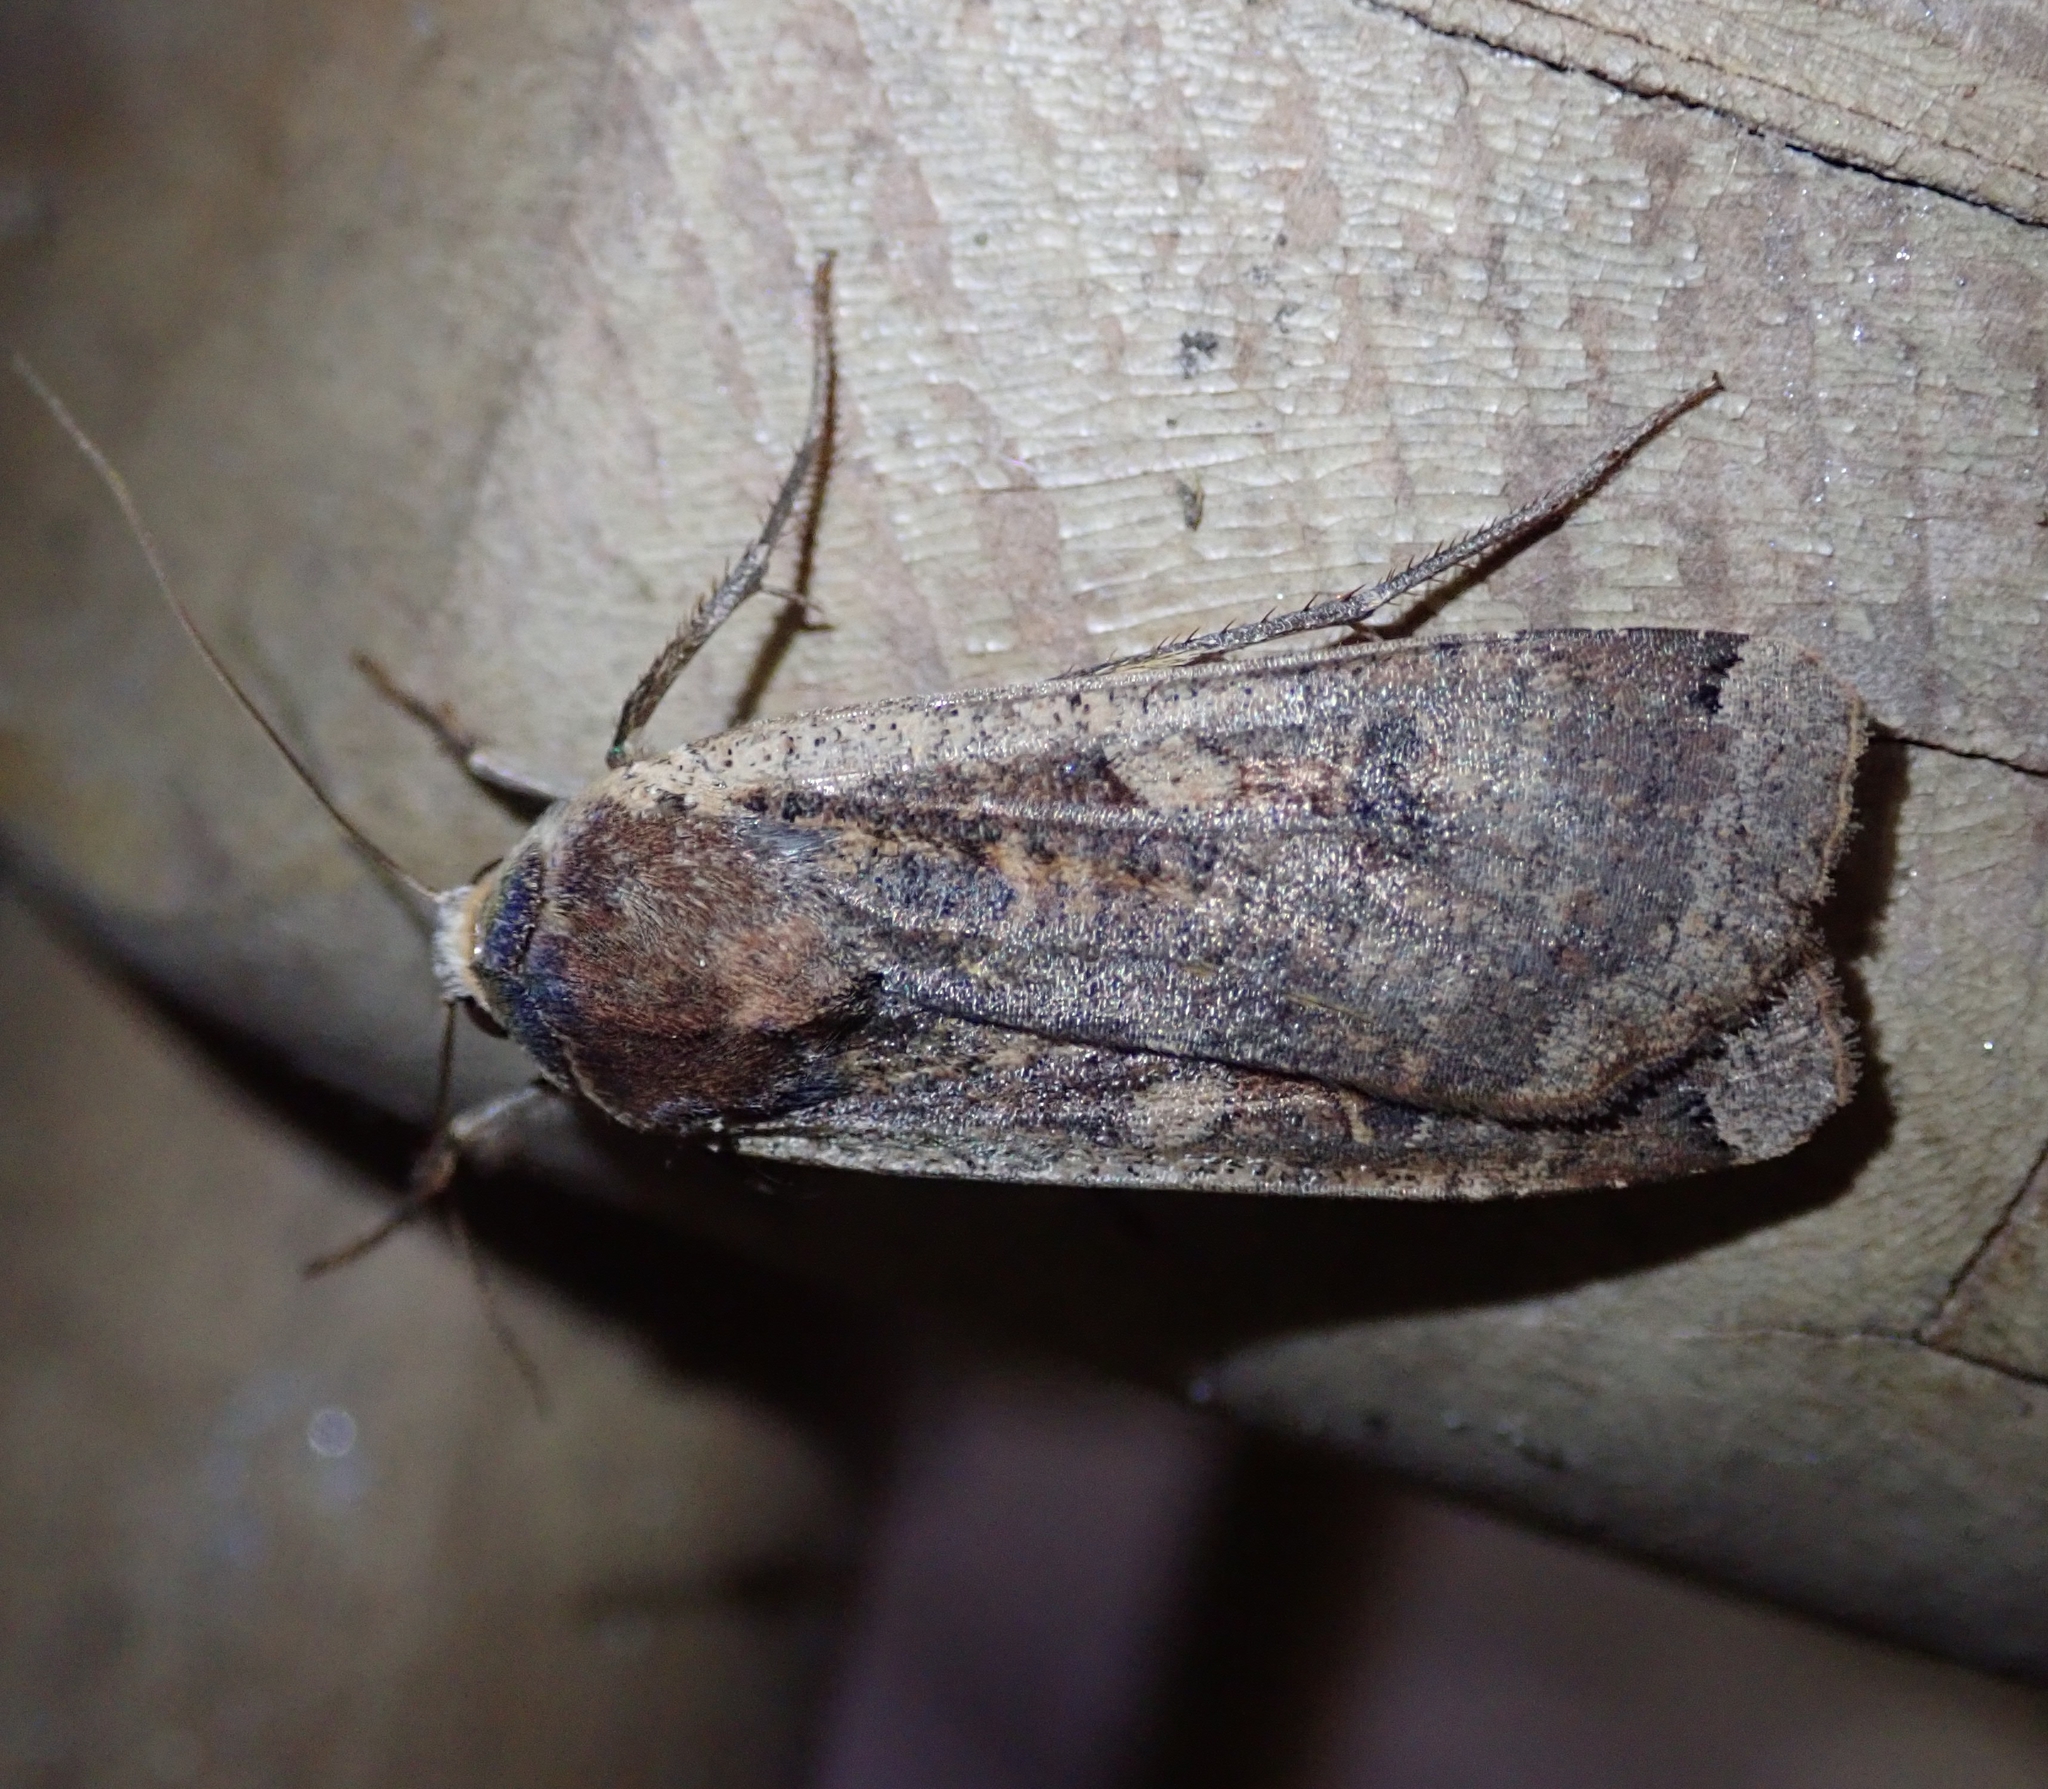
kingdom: Animalia
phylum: Arthropoda
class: Insecta
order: Lepidoptera
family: Noctuidae
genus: Noctua
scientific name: Noctua pronuba
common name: Large yellow underwing
